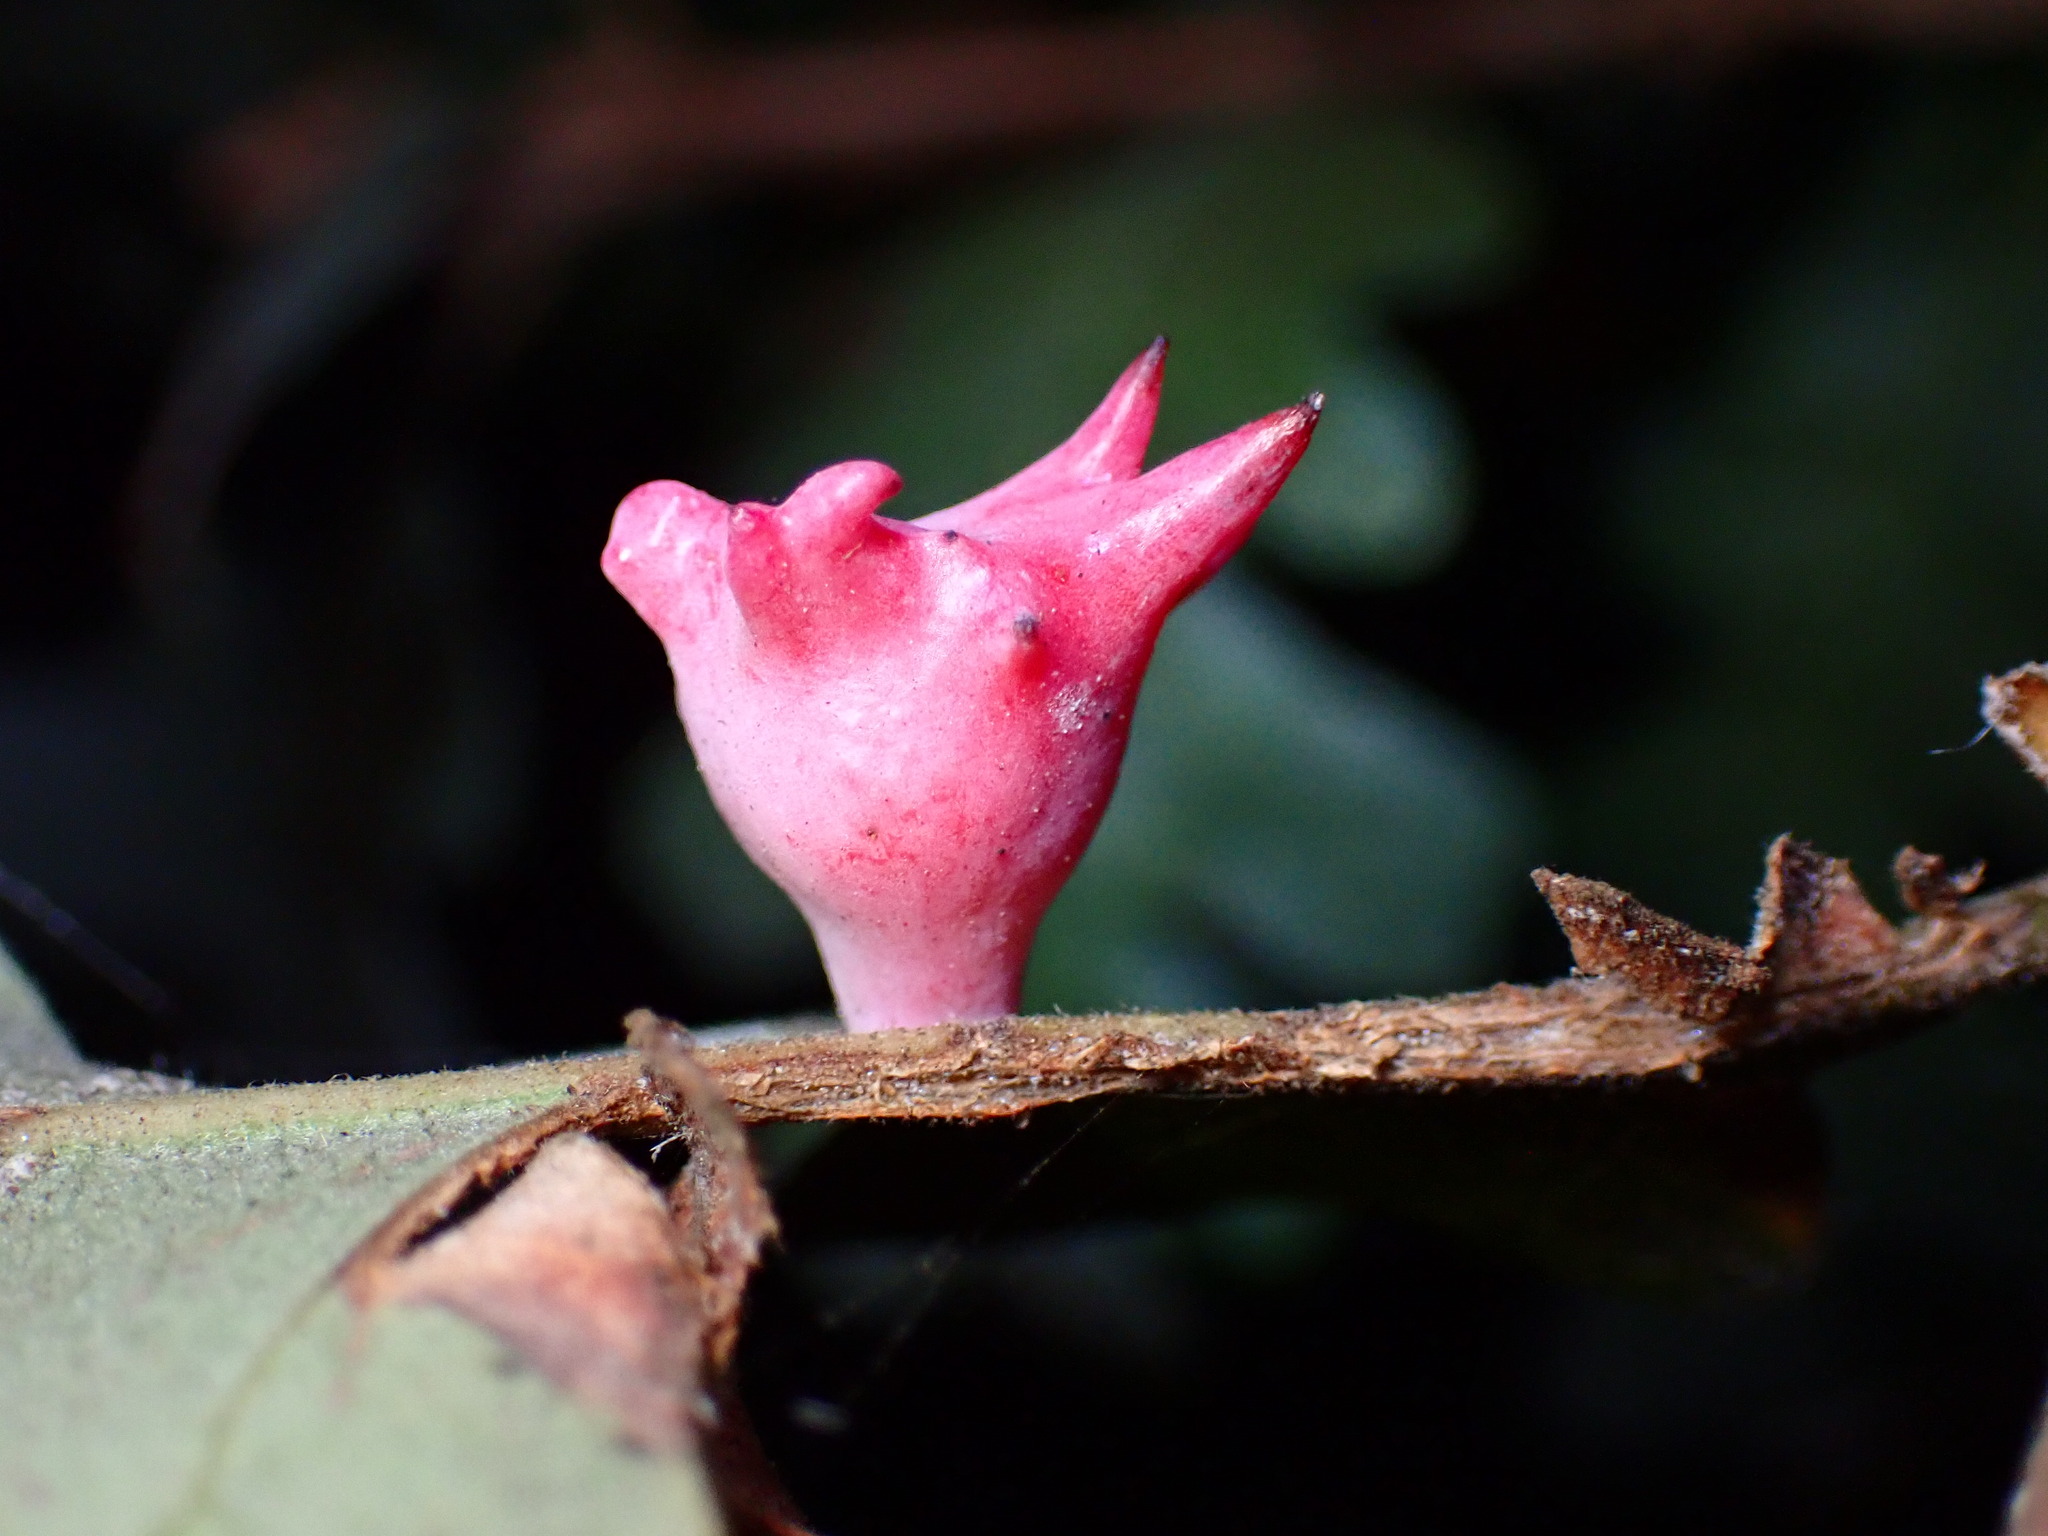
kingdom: Animalia
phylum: Arthropoda
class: Insecta
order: Hymenoptera
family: Cynipidae
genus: Cynips
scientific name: Cynips douglasi
